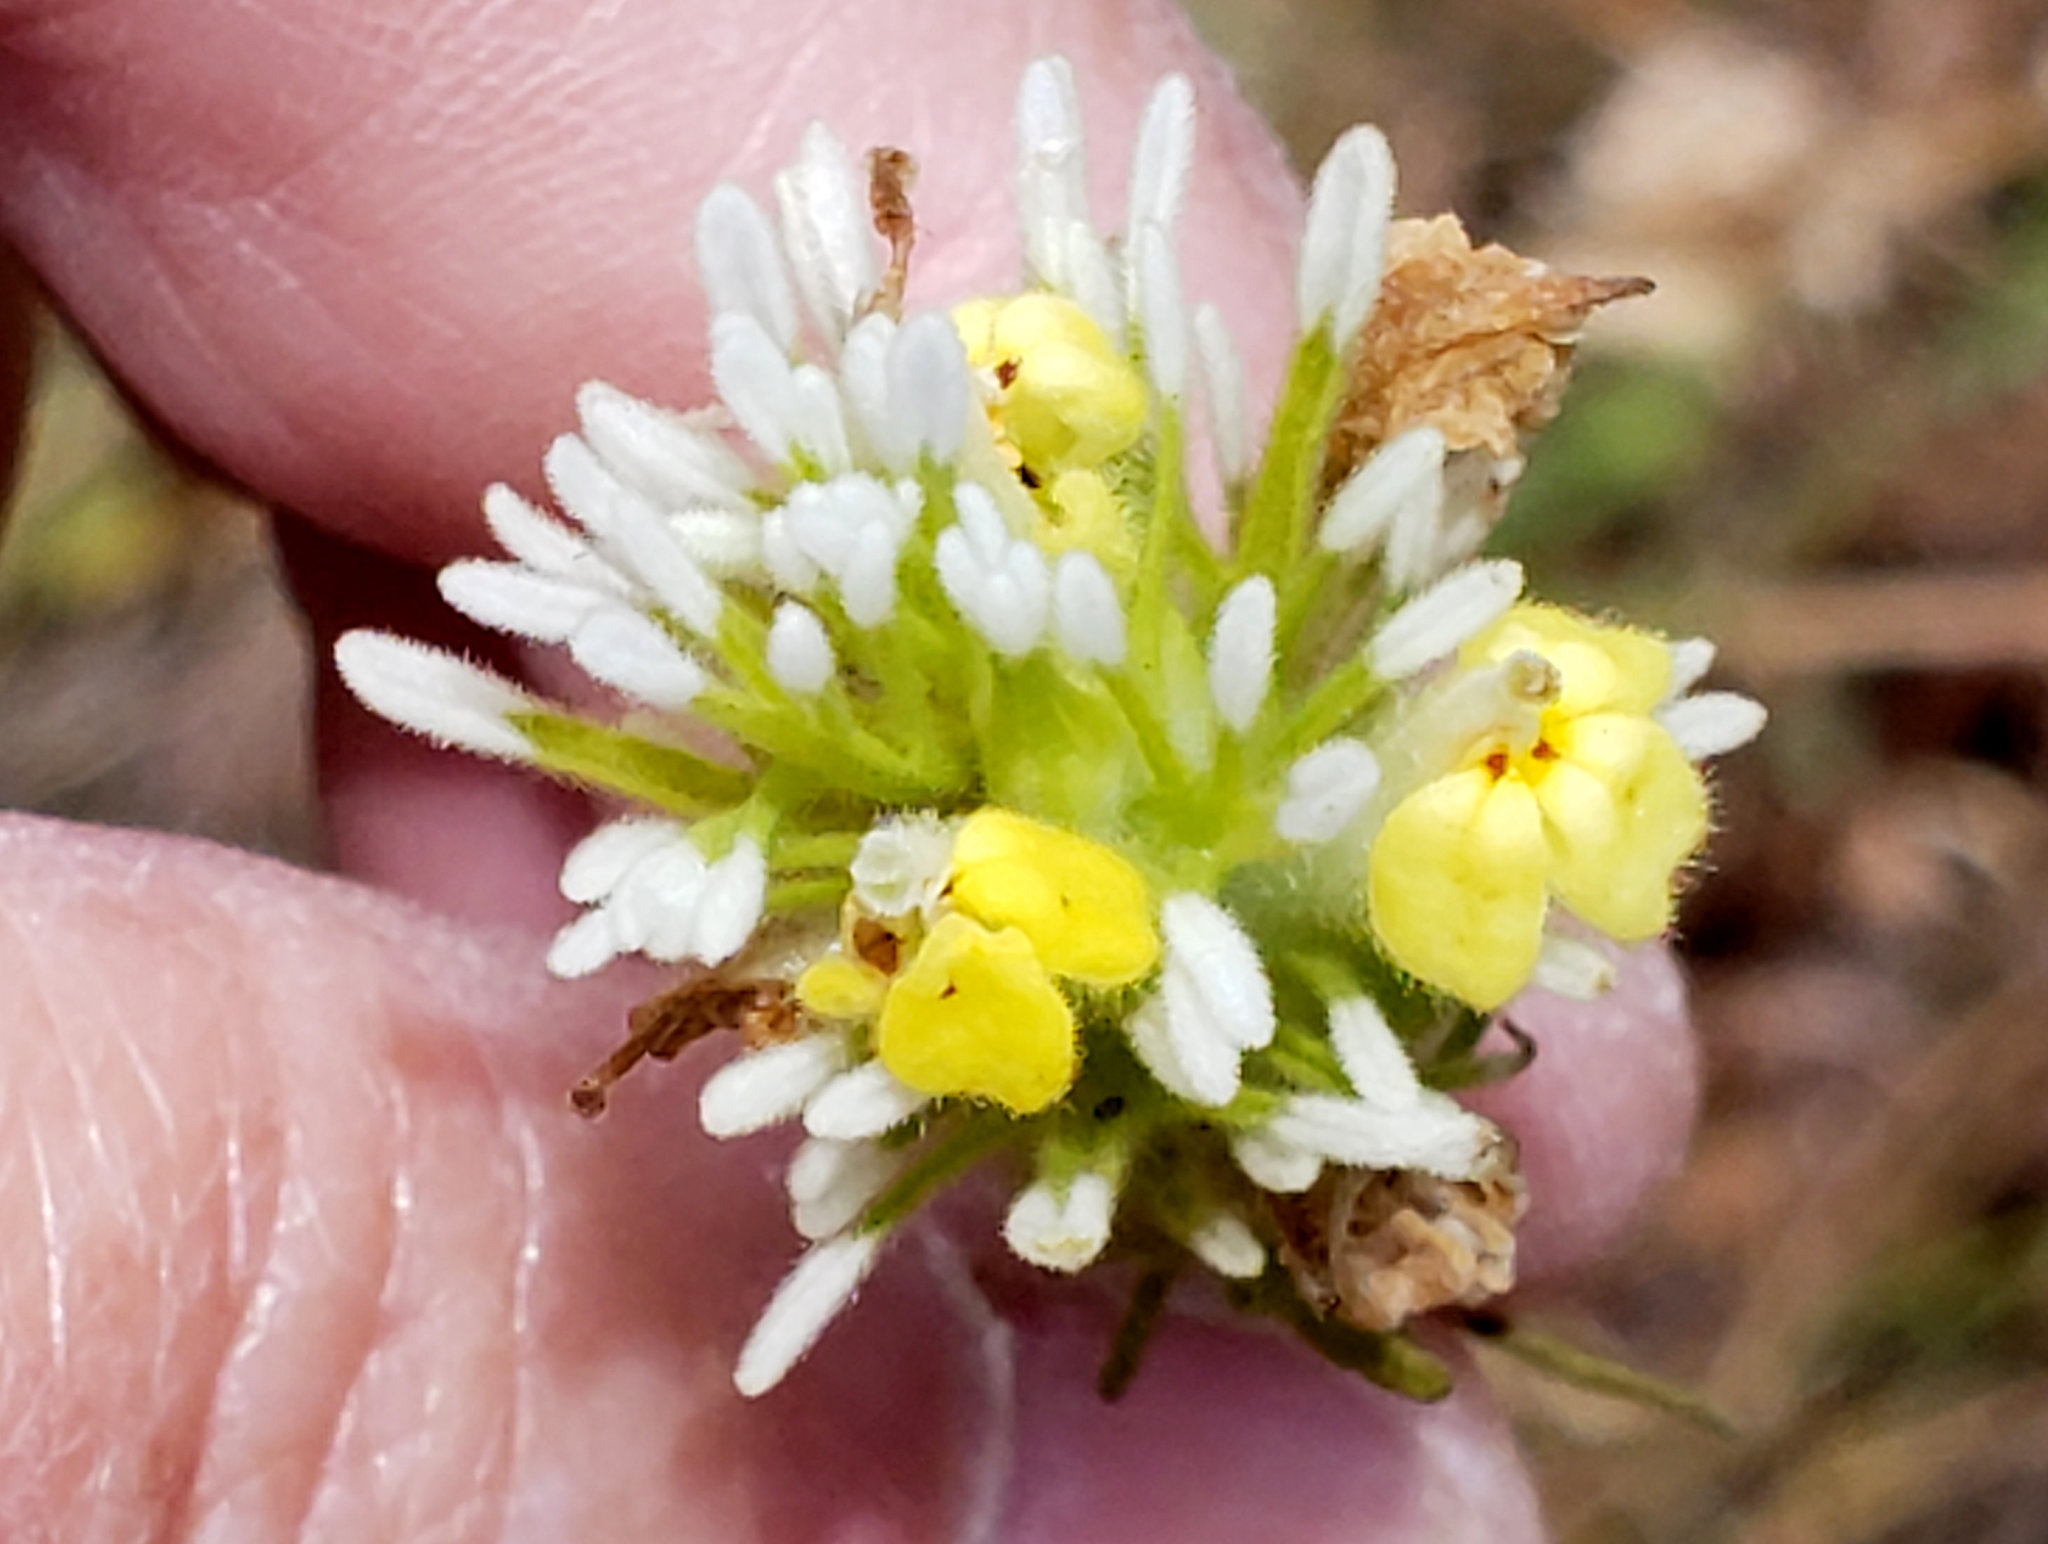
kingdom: Plantae
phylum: Tracheophyta
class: Magnoliopsida
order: Lamiales
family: Orobanchaceae
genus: Castilleja
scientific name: Castilleja lineariloba
